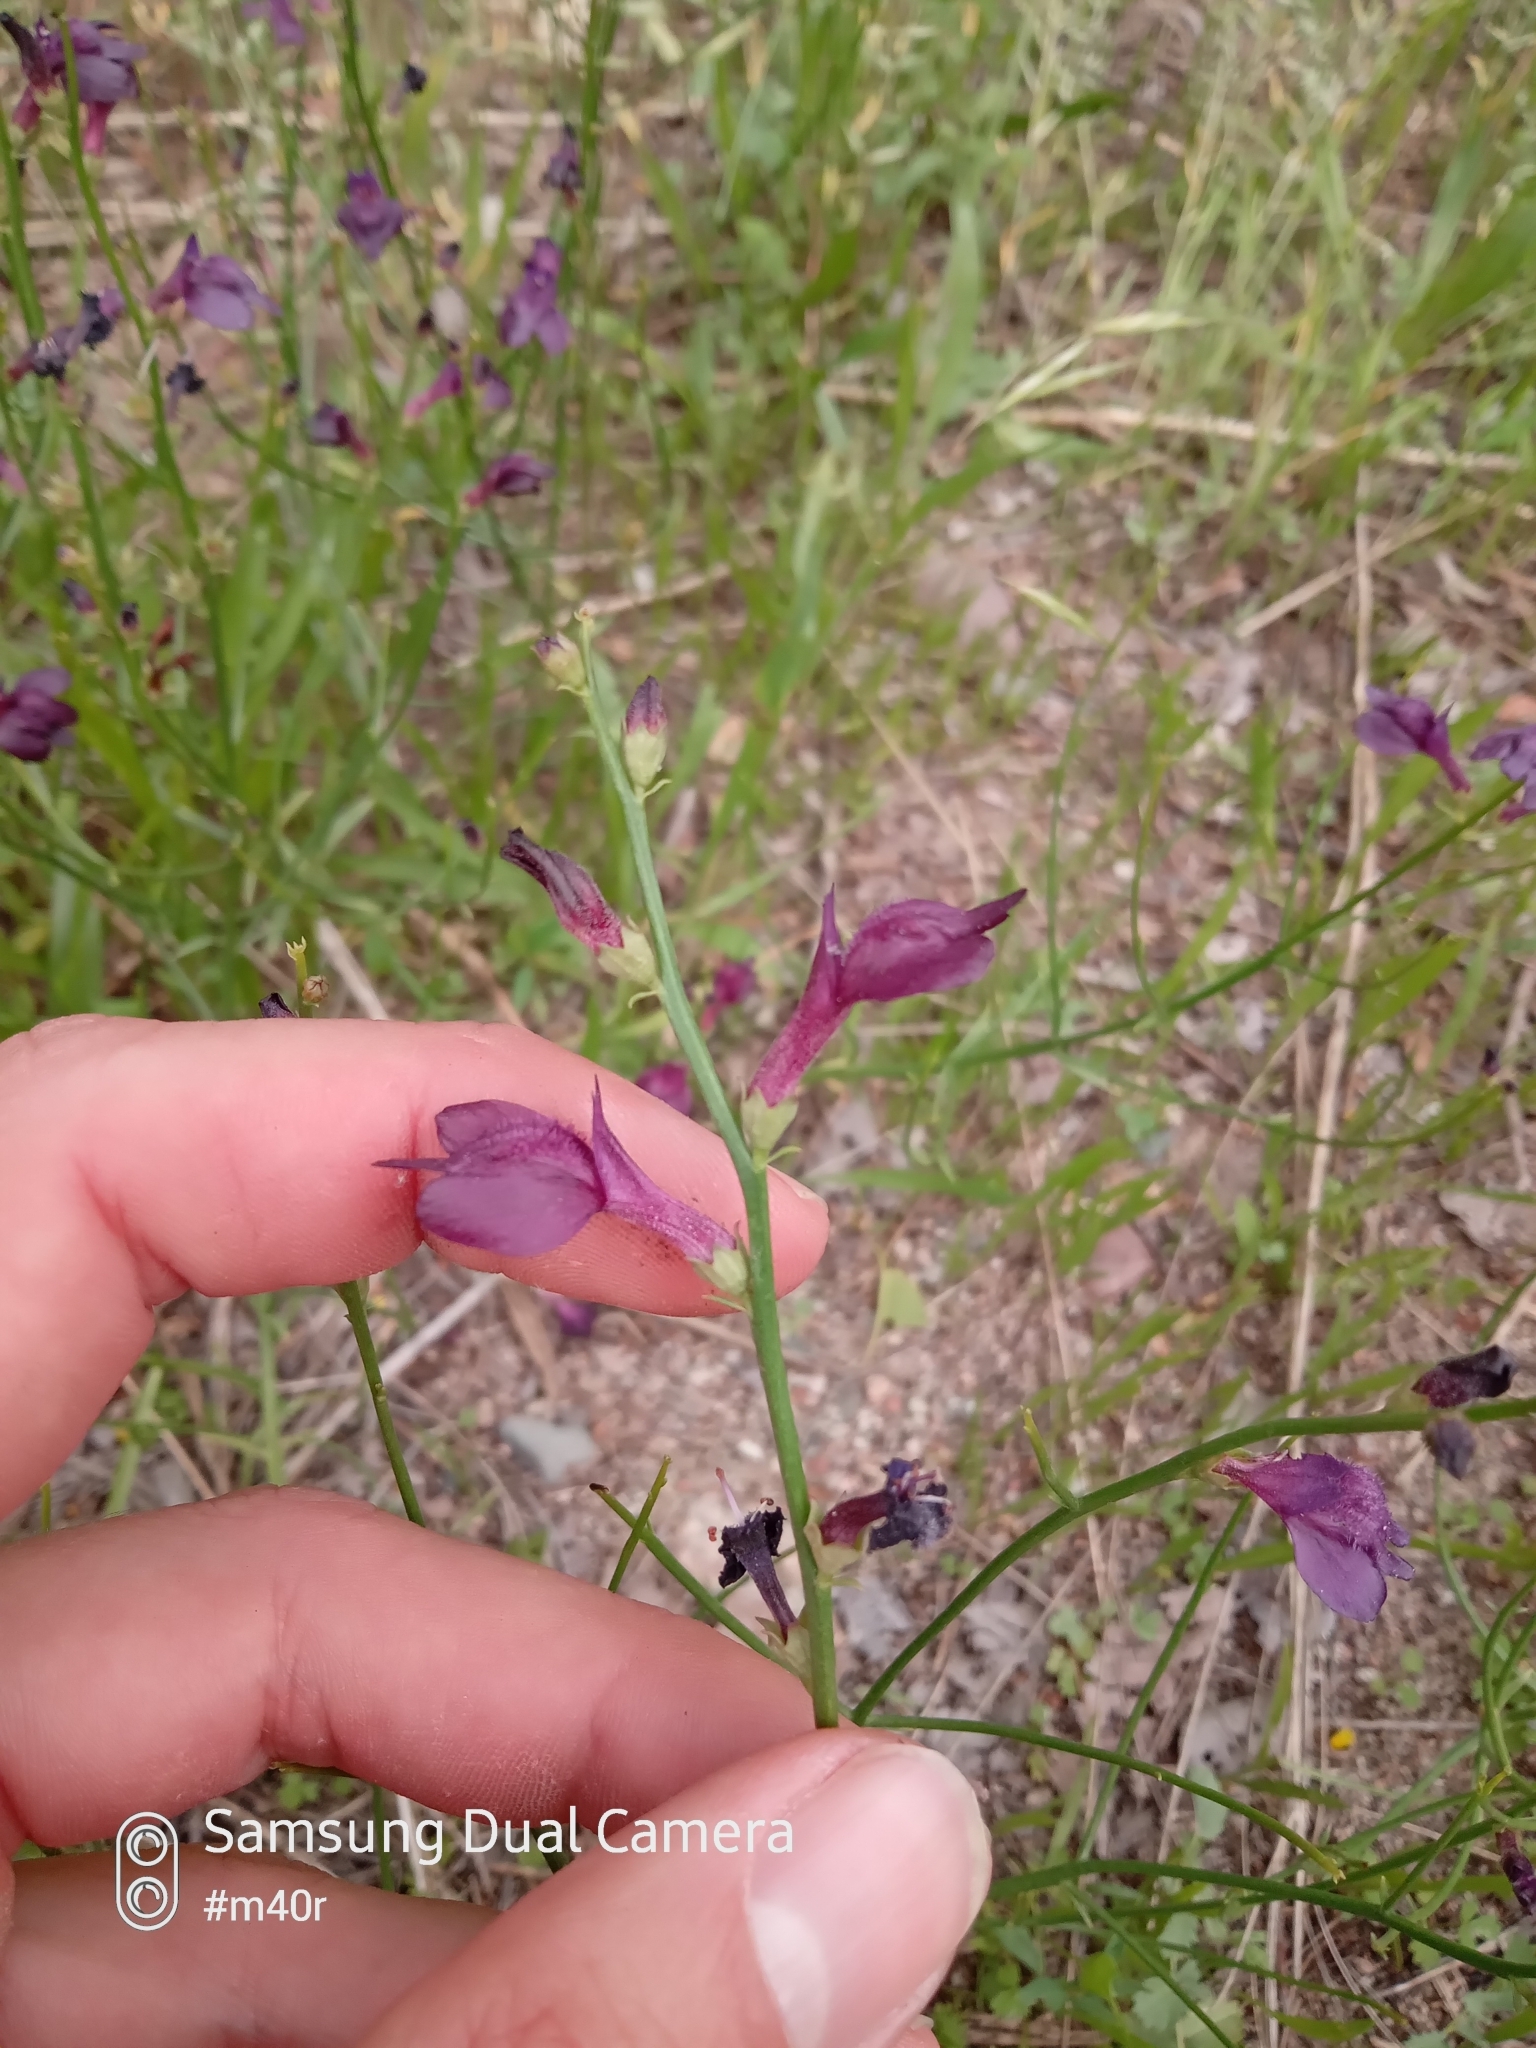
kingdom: Plantae
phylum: Tracheophyta
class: Magnoliopsida
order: Lamiales
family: Mazaceae
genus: Dodartia
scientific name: Dodartia orientalis
